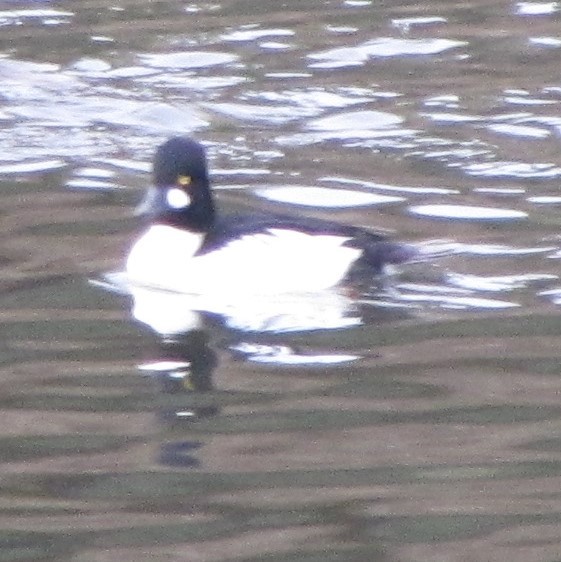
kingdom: Animalia
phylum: Chordata
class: Aves
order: Anseriformes
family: Anatidae
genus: Bucephala
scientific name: Bucephala clangula
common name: Common goldeneye
